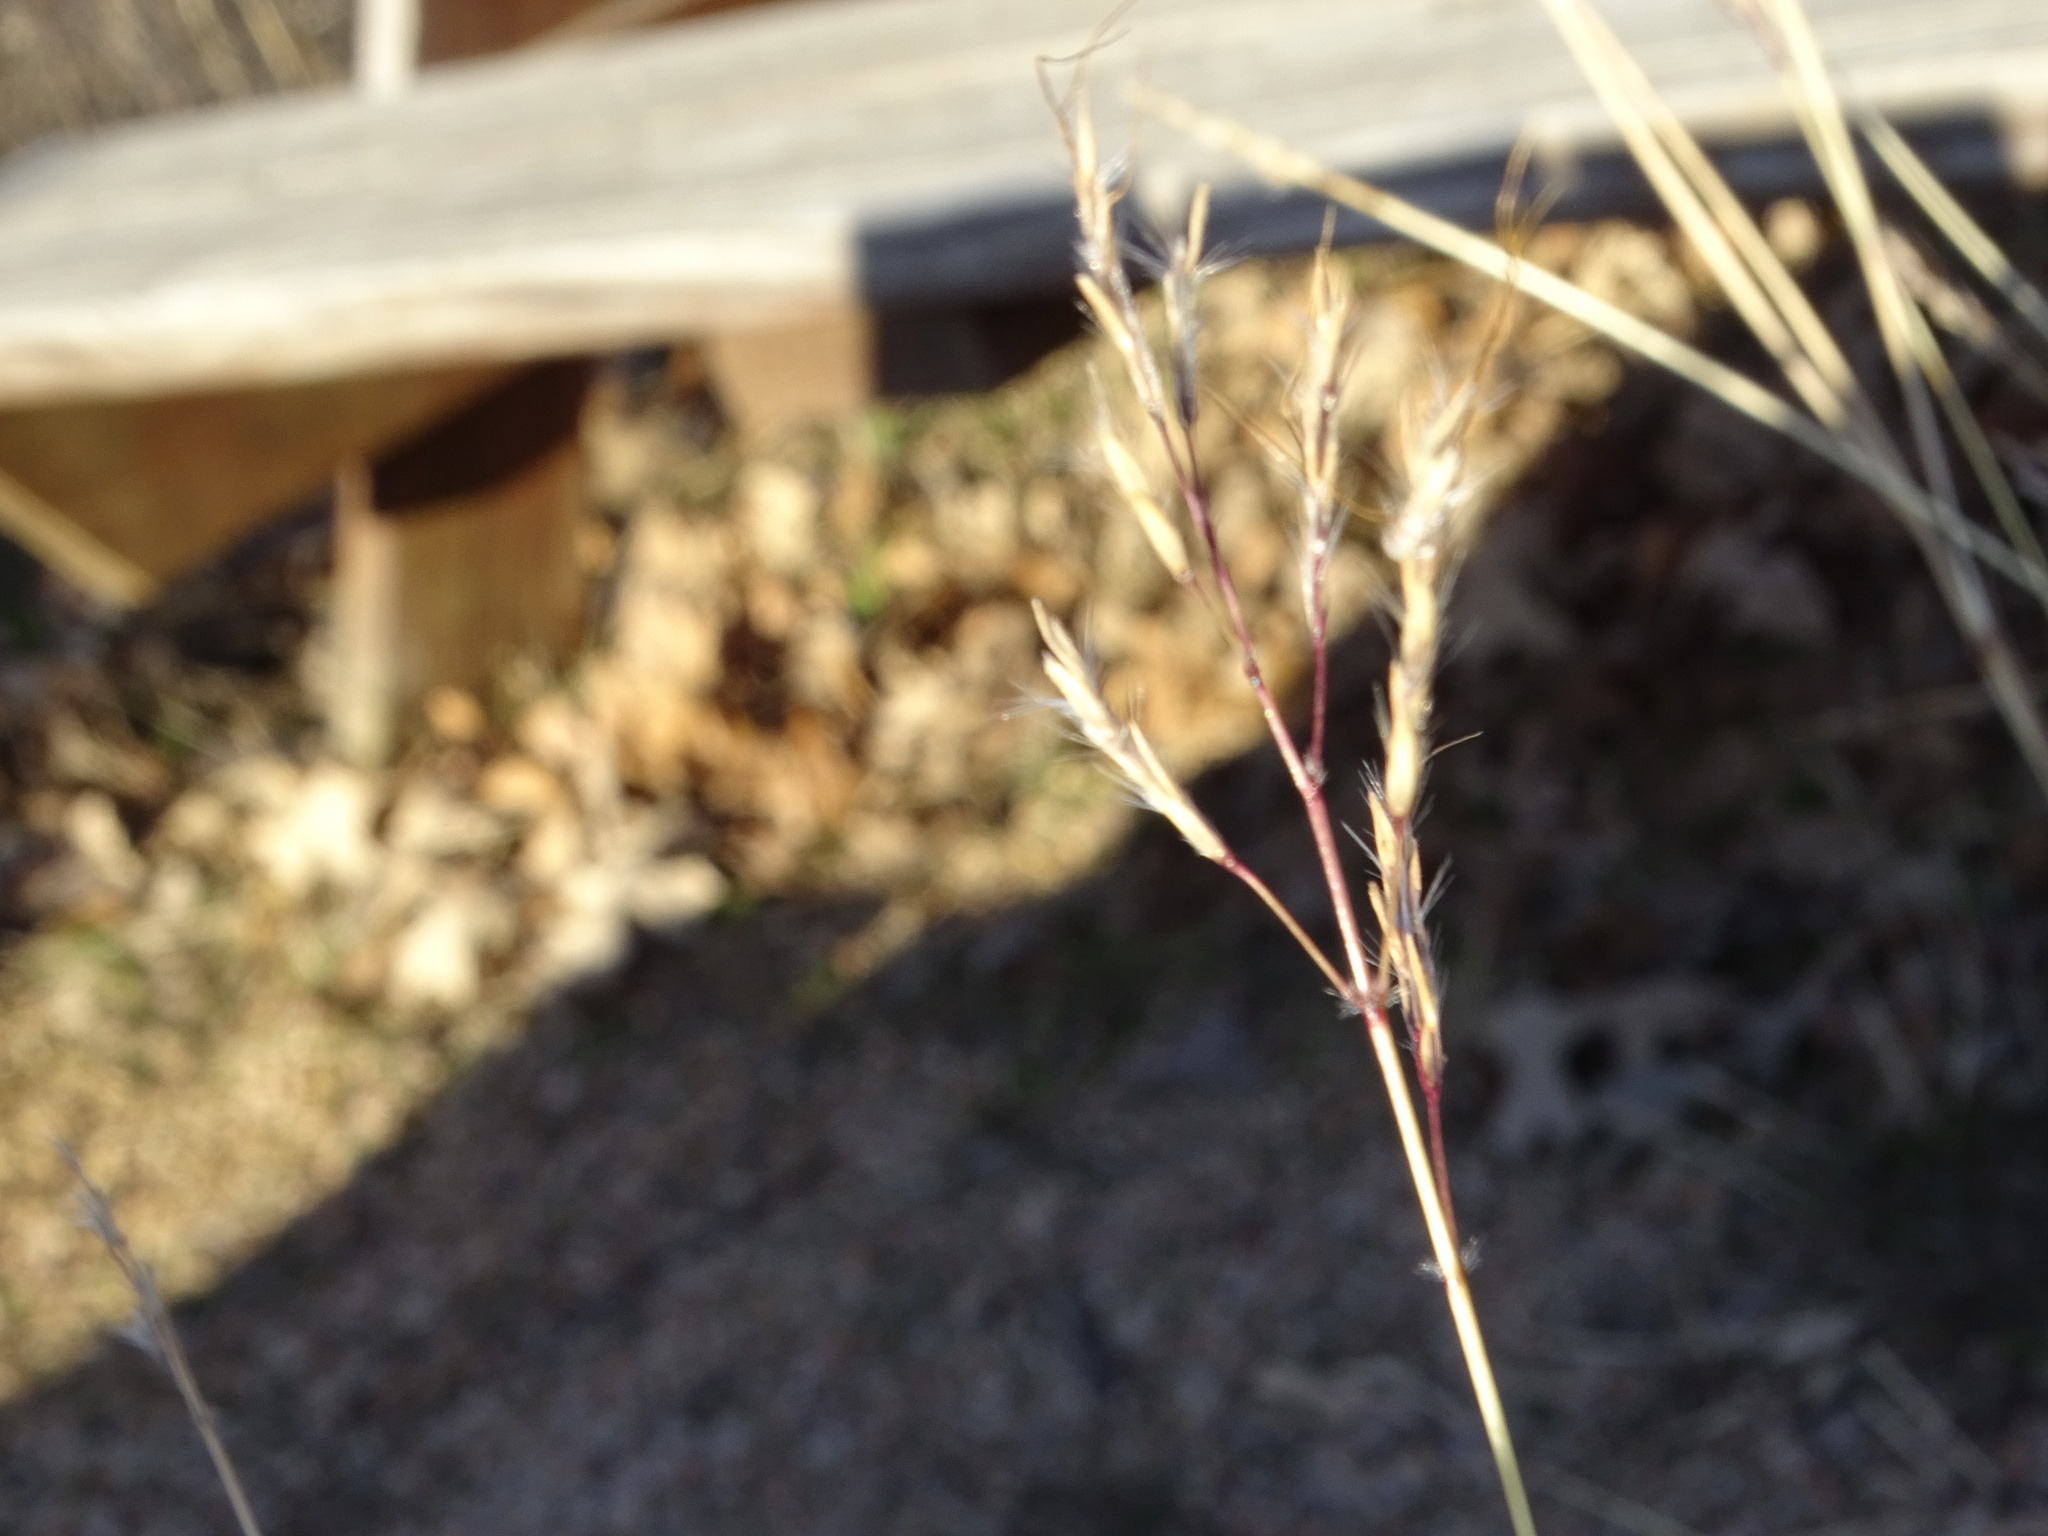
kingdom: Plantae
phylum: Tracheophyta
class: Liliopsida
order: Poales
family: Poaceae
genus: Bothriochloa
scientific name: Bothriochloa ischaemum
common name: Yellow bluestem
